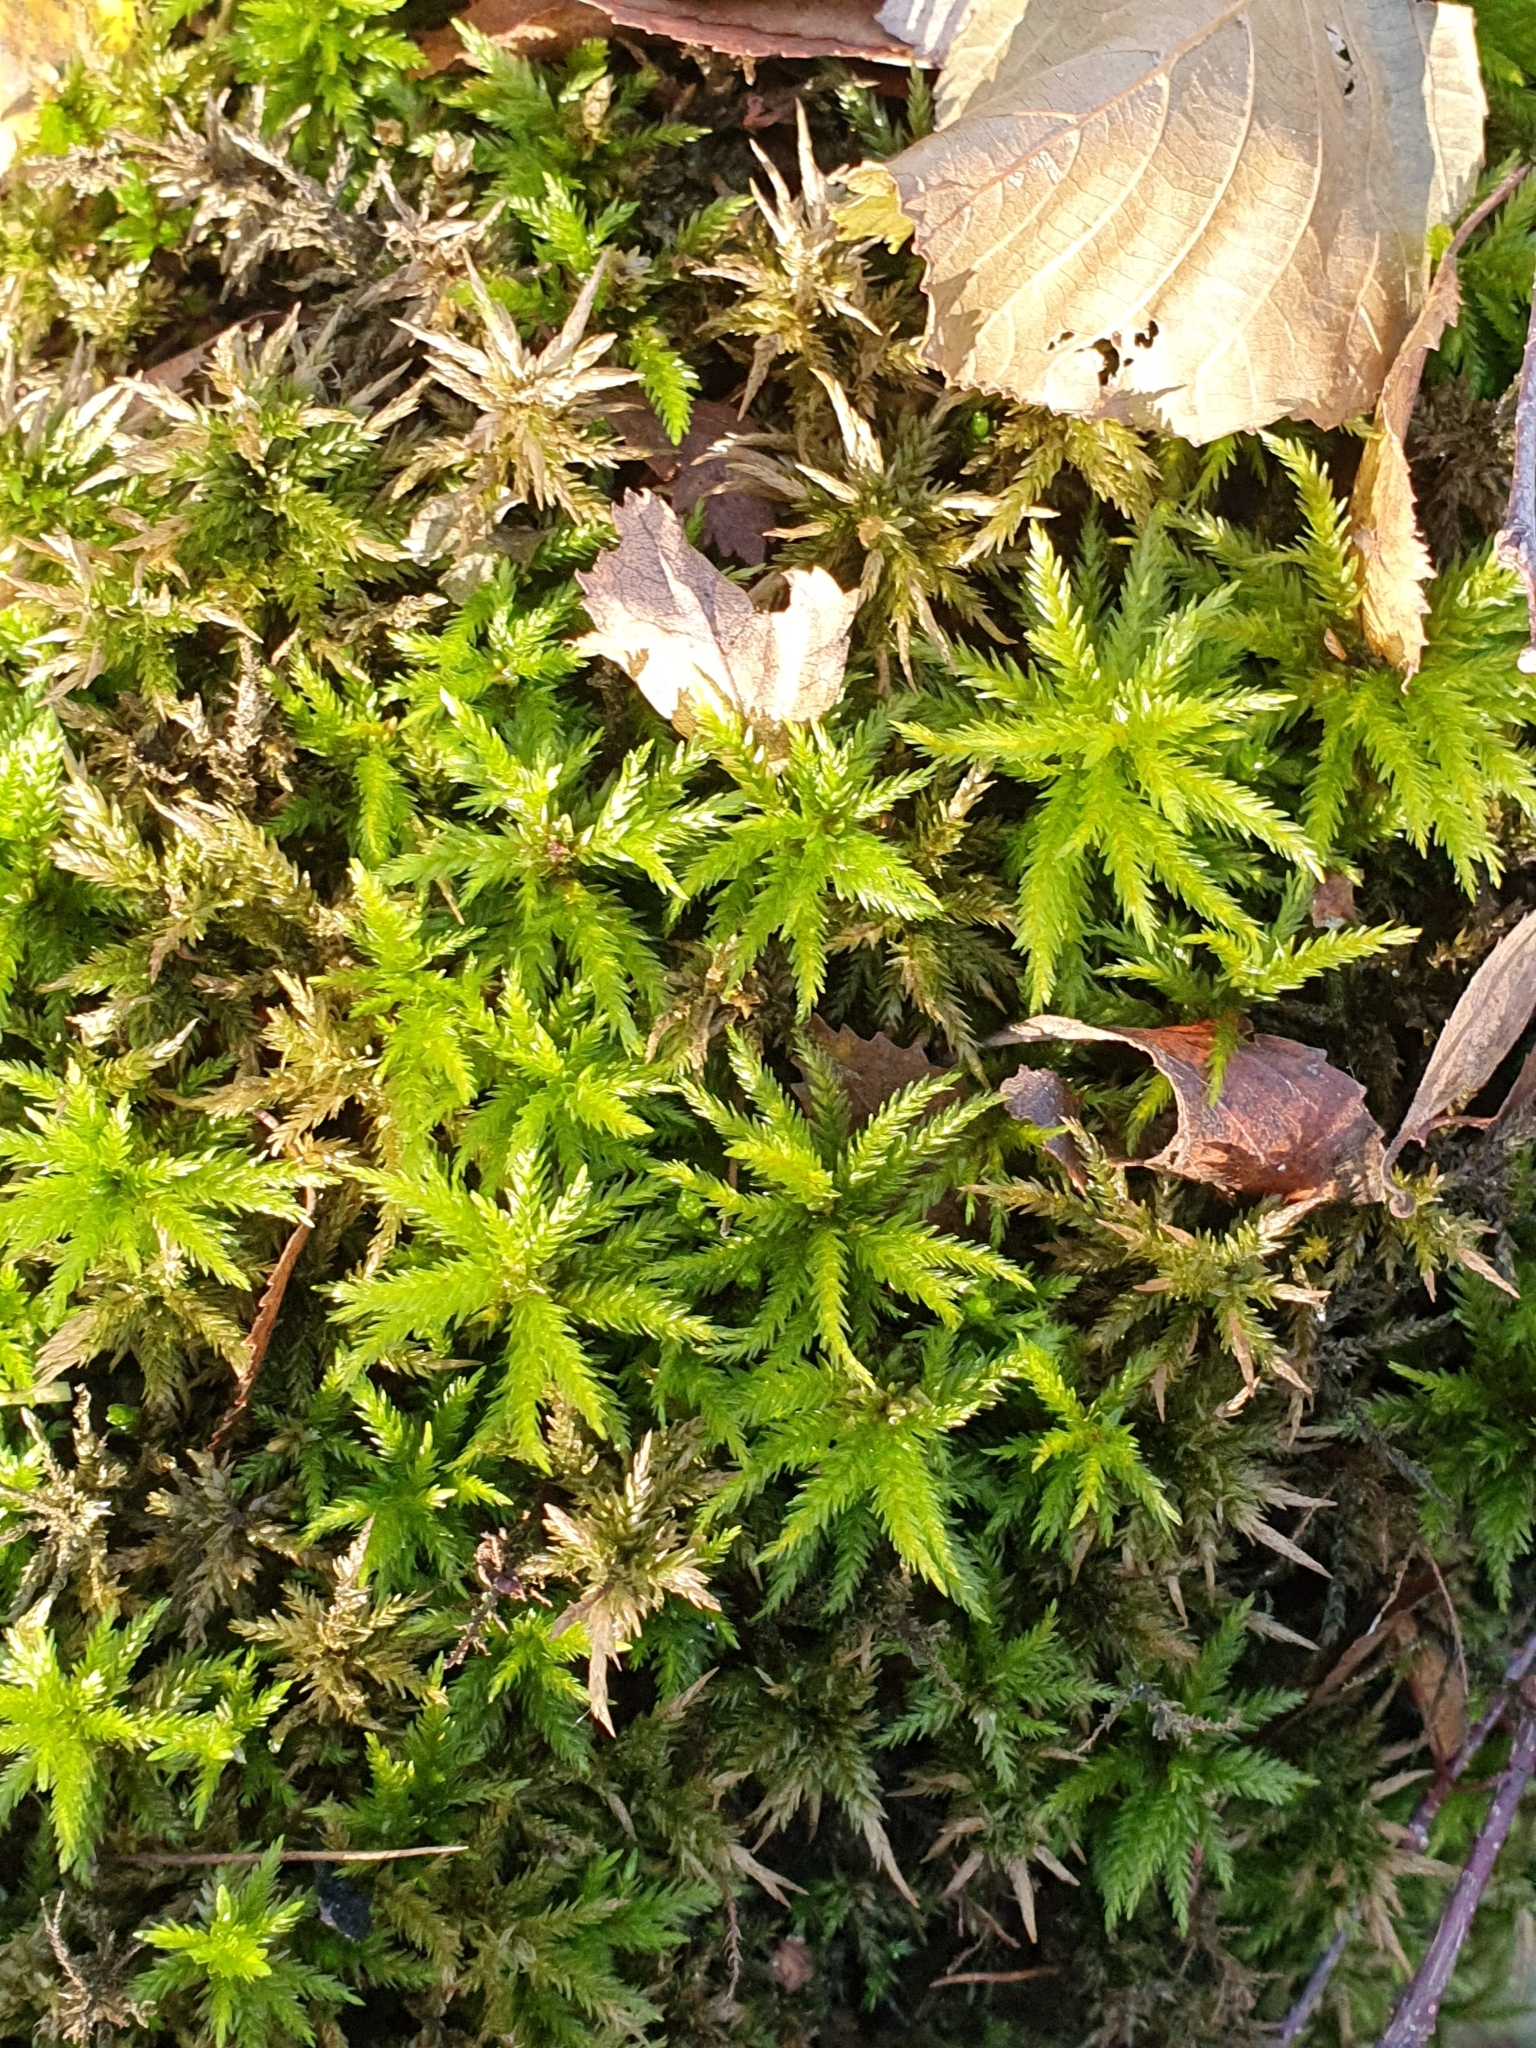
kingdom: Plantae
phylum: Bryophyta
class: Bryopsida
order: Hypnales
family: Climaciaceae
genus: Climacium
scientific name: Climacium dendroides
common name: Northern tree moss
